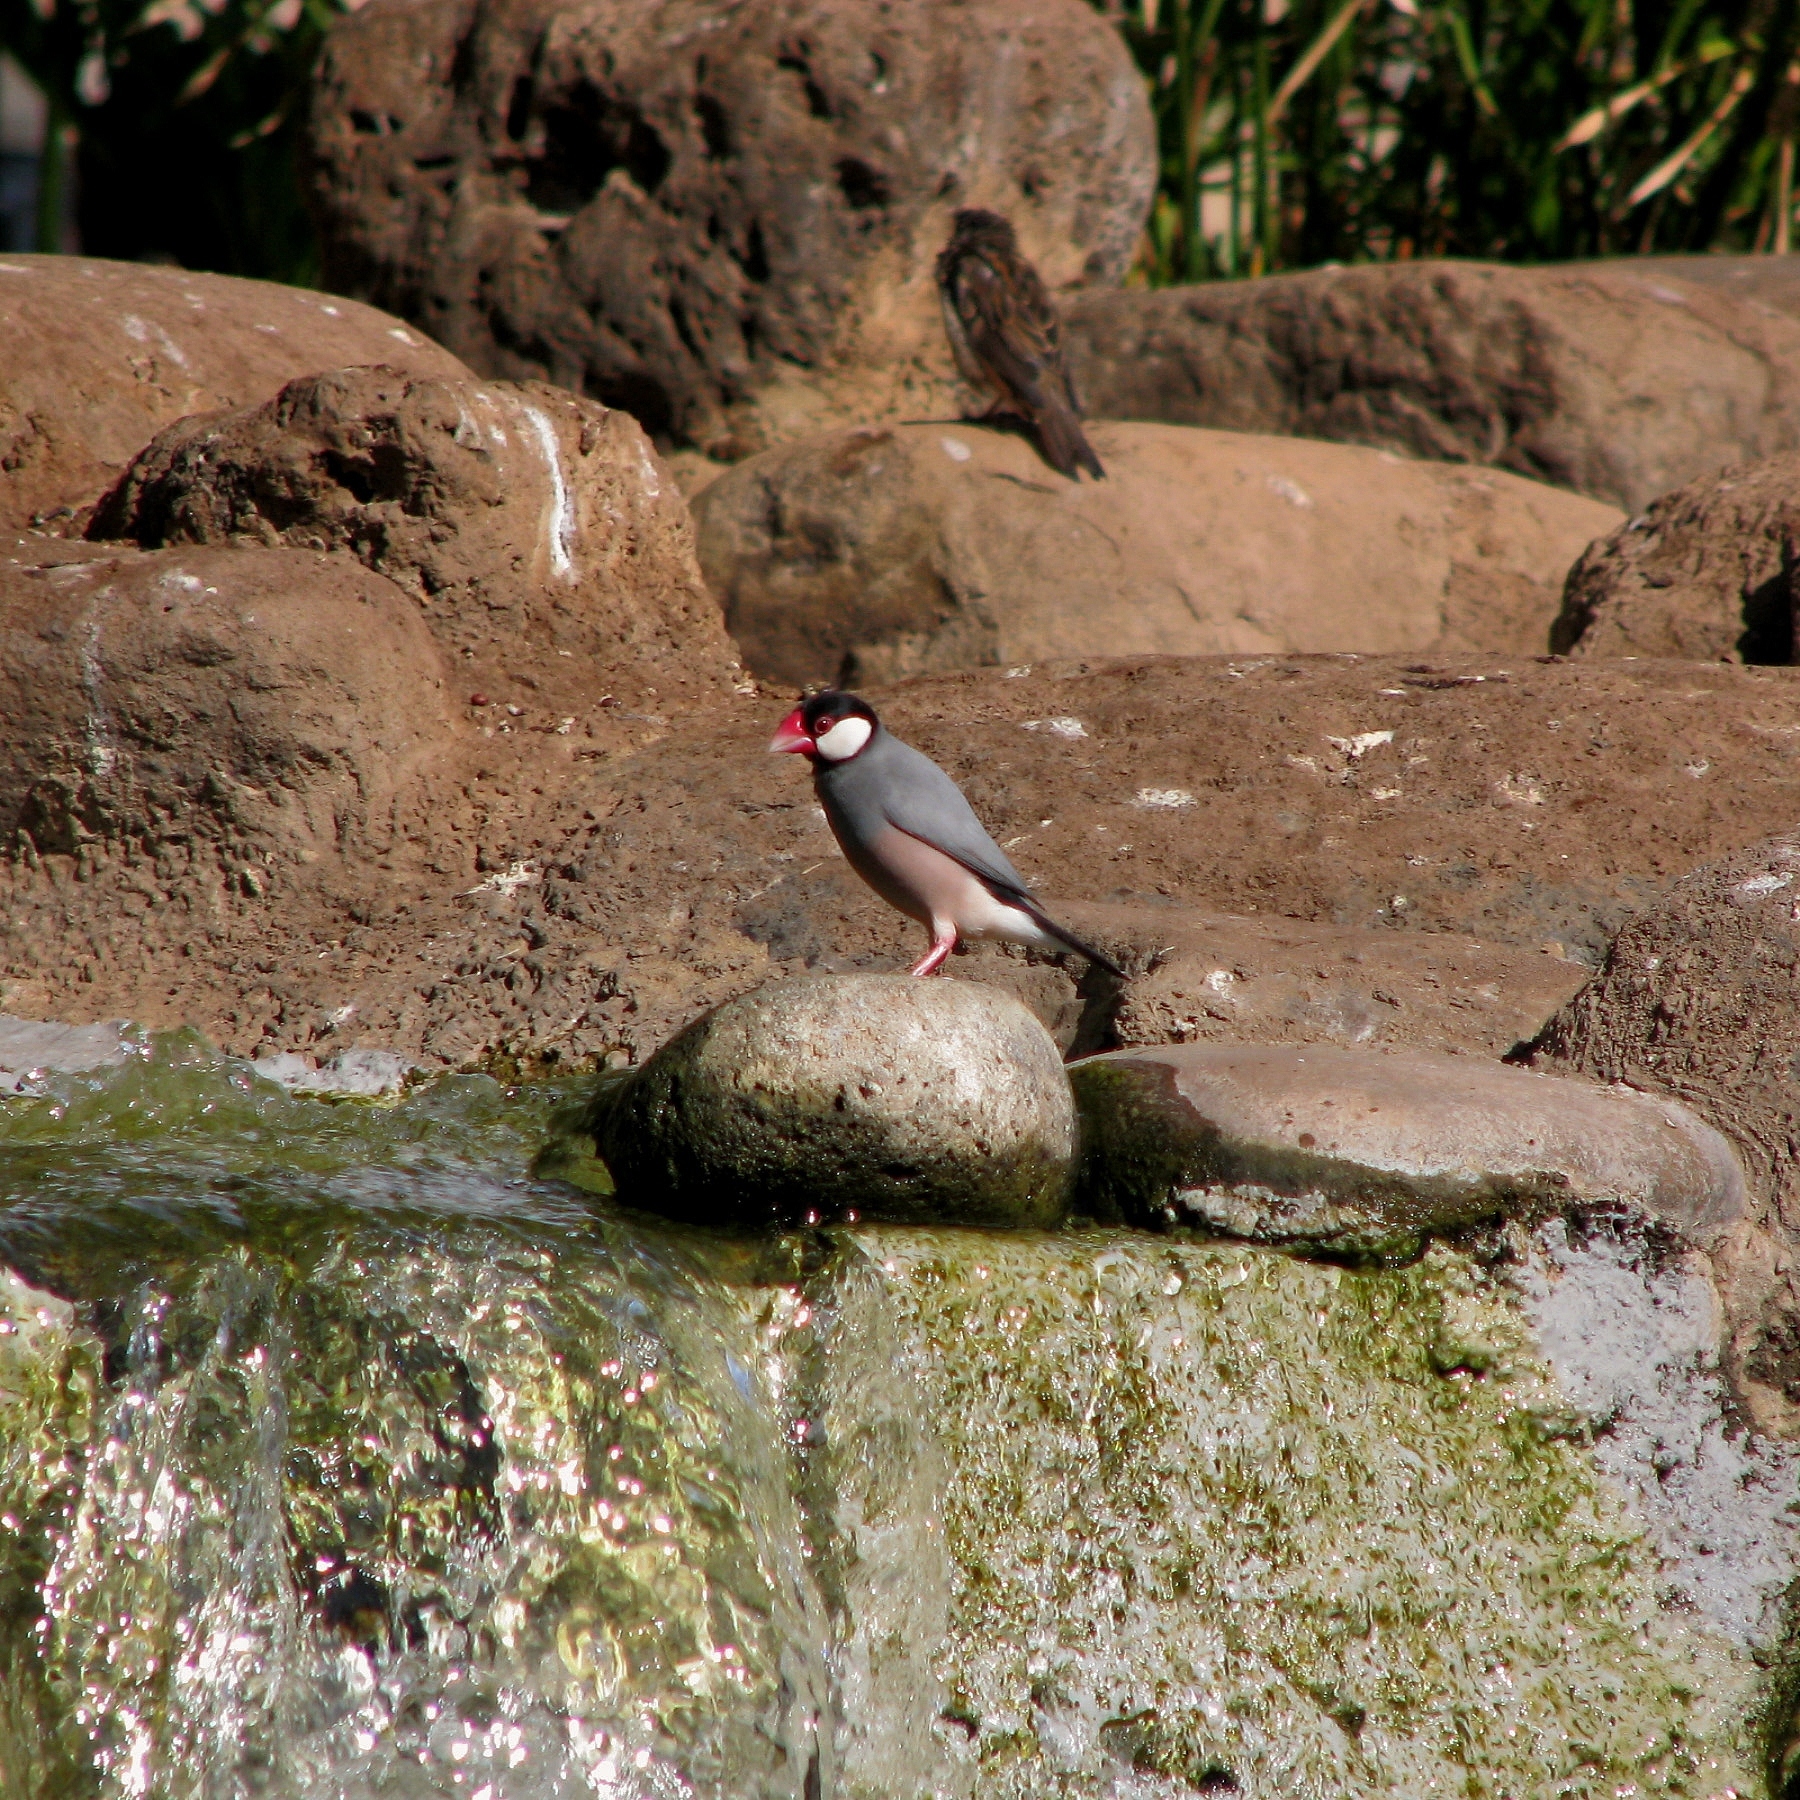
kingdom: Animalia
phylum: Chordata
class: Aves
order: Passeriformes
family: Estrildidae
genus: Lonchura
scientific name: Lonchura oryzivora
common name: Java sparrow
